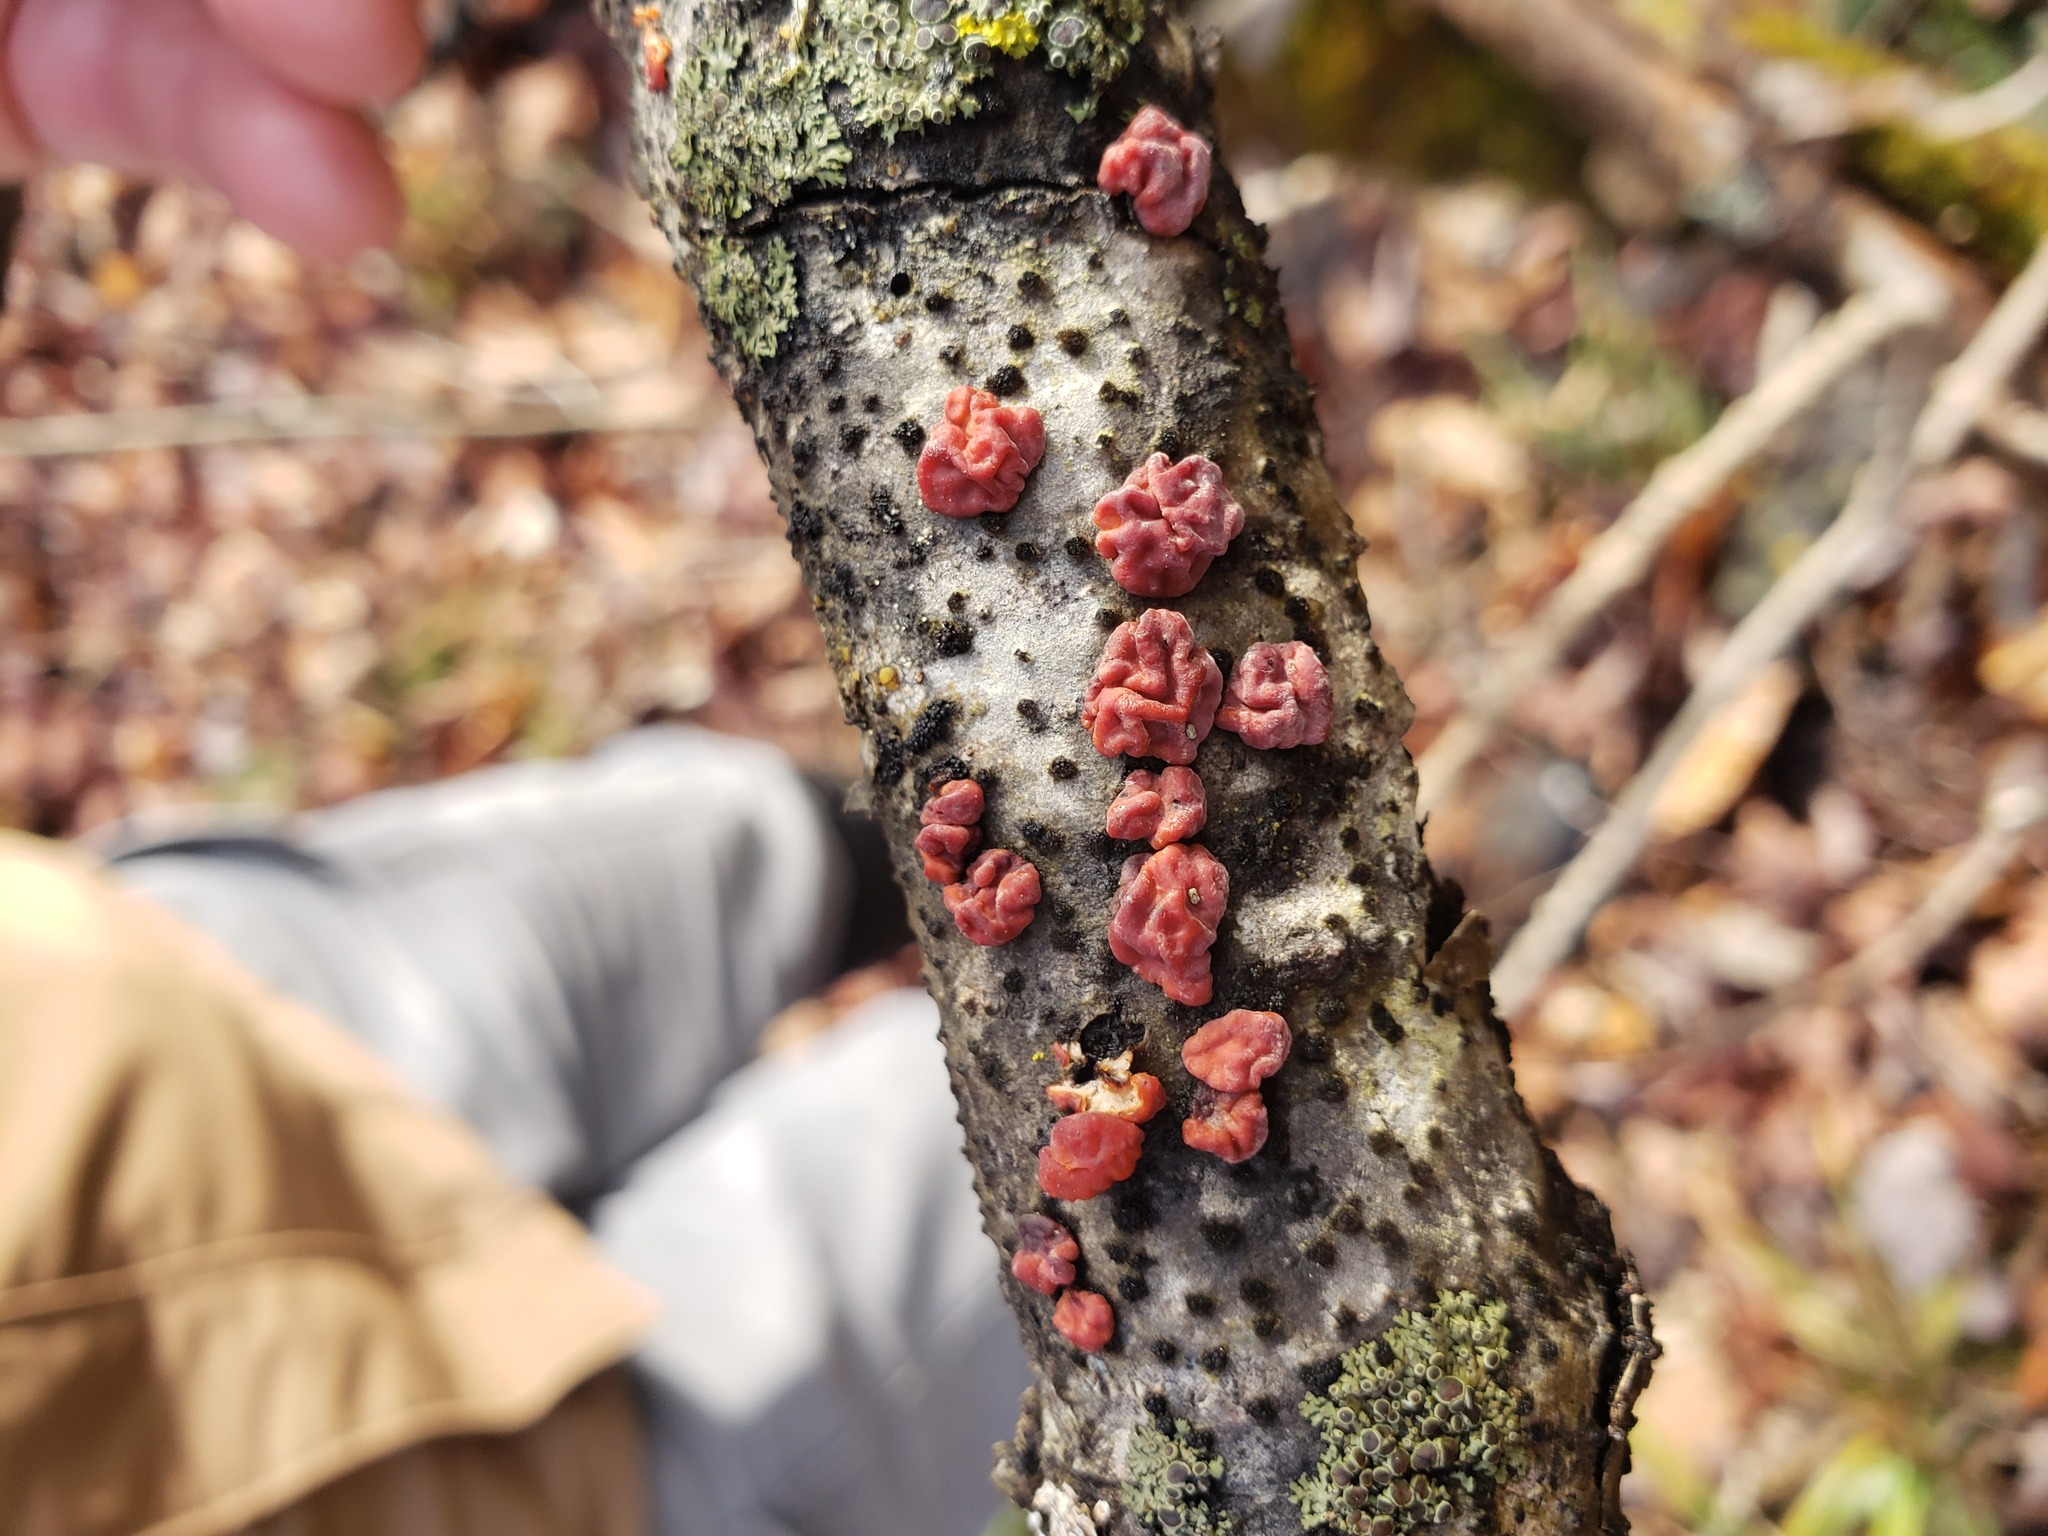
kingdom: Fungi
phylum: Basidiomycota
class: Agaricomycetes
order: Russulales
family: Peniophoraceae
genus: Peniophora
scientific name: Peniophora rufa
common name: Red tree brain fungus
